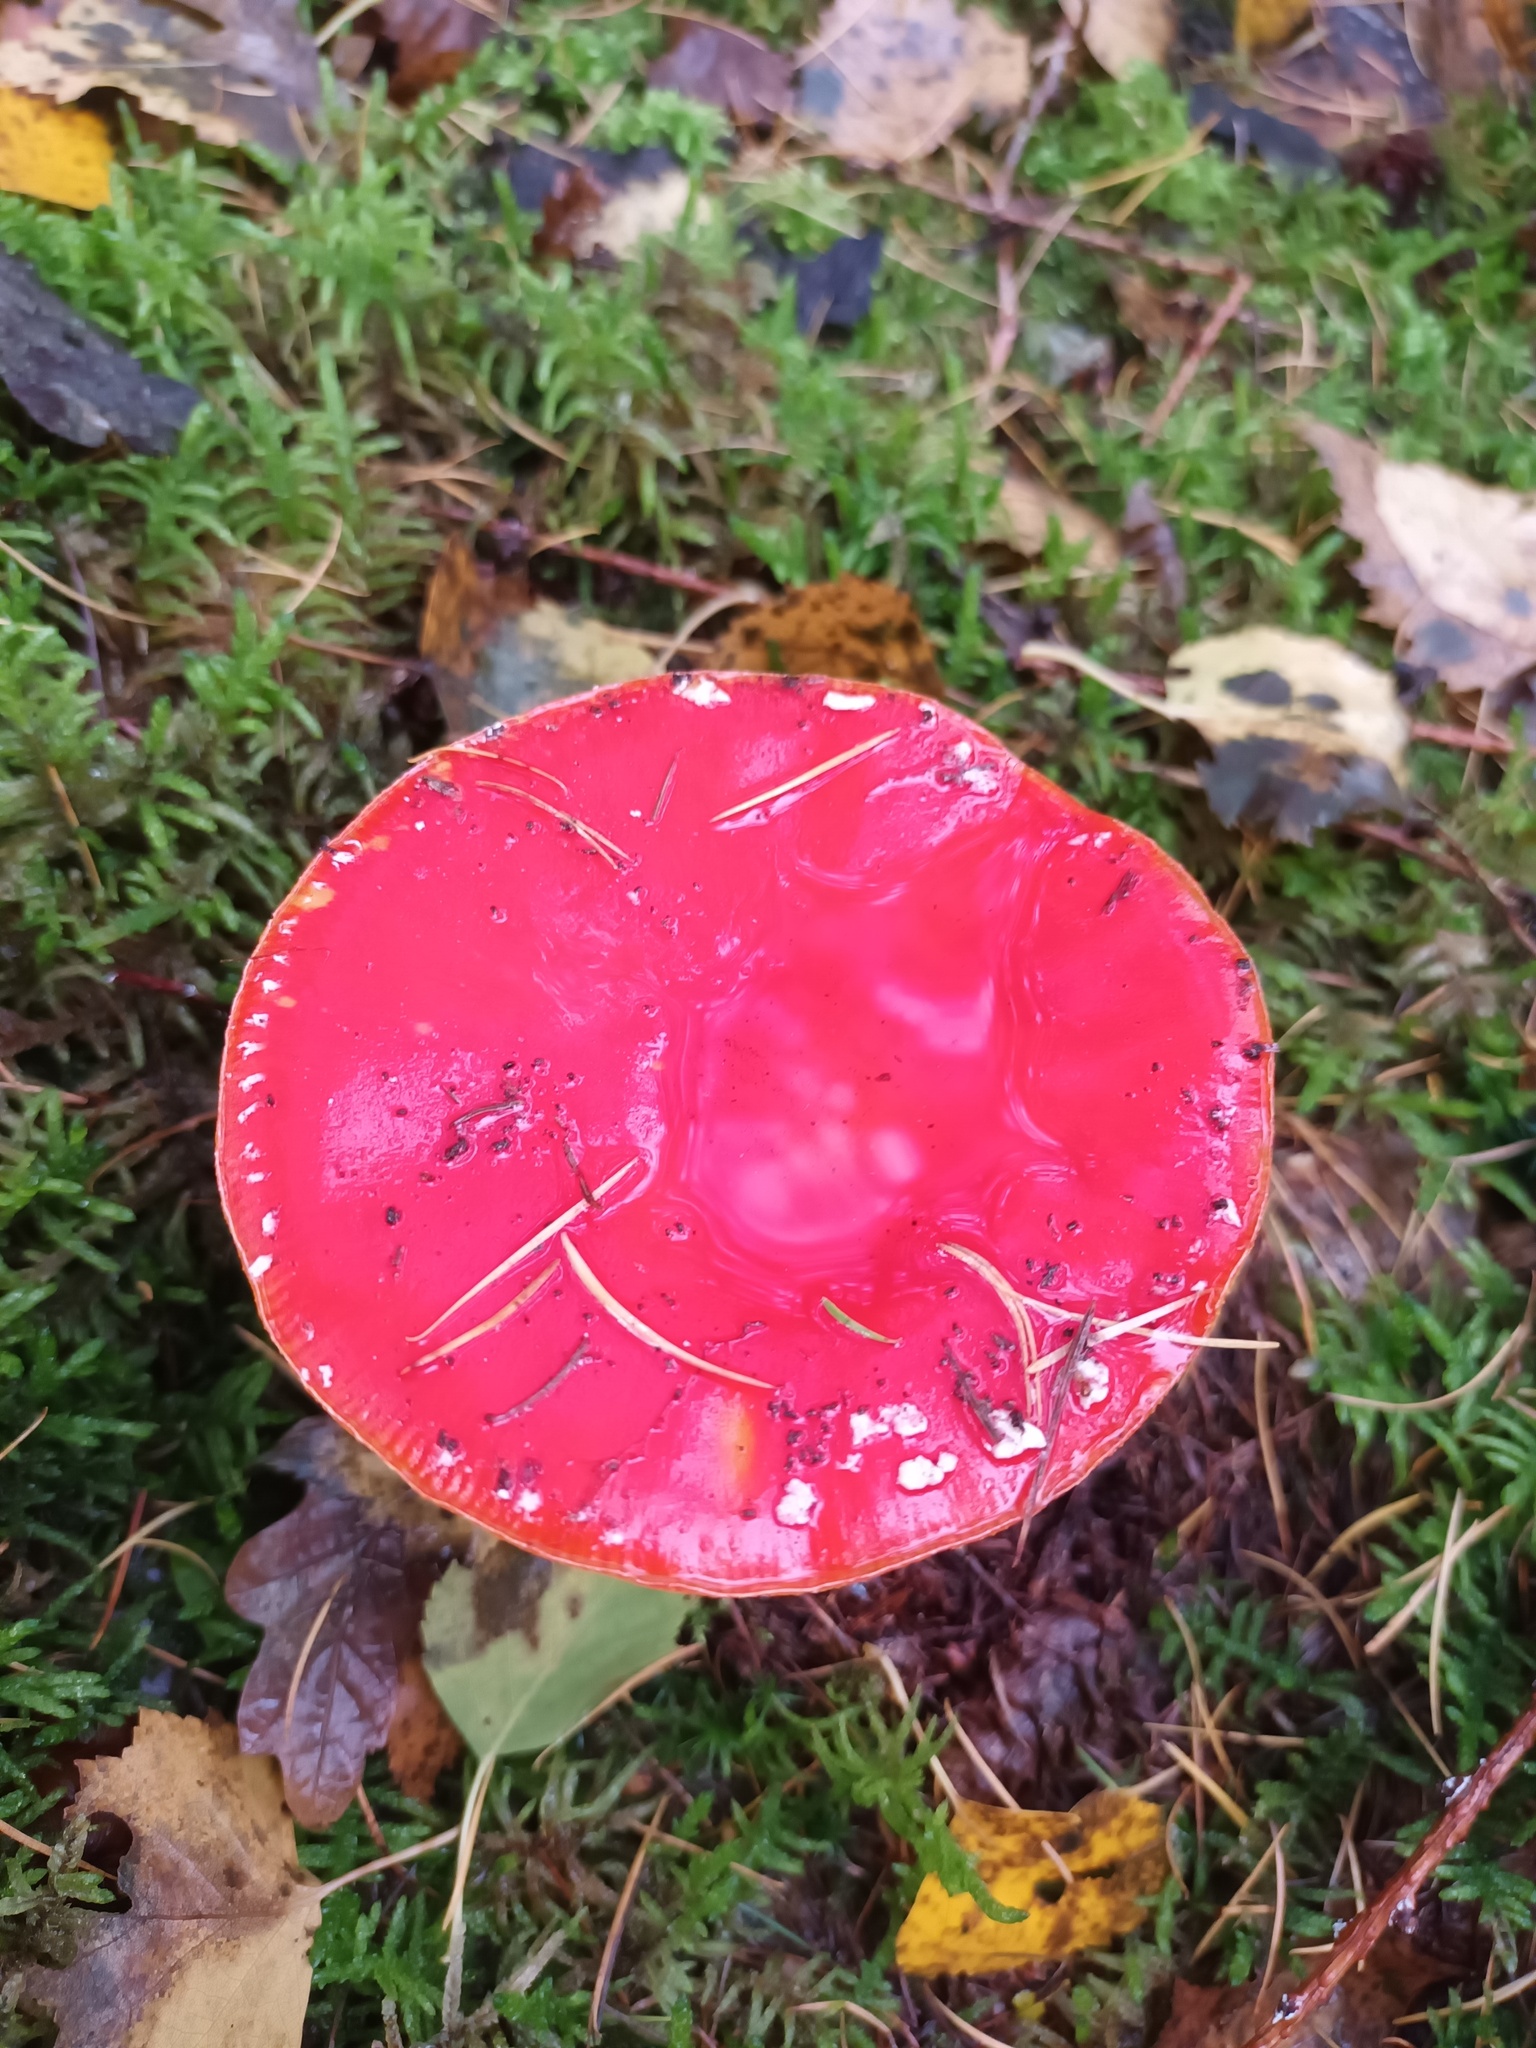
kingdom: Fungi
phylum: Basidiomycota
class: Agaricomycetes
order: Agaricales
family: Amanitaceae
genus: Amanita
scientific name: Amanita muscaria
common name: Fly agaric
